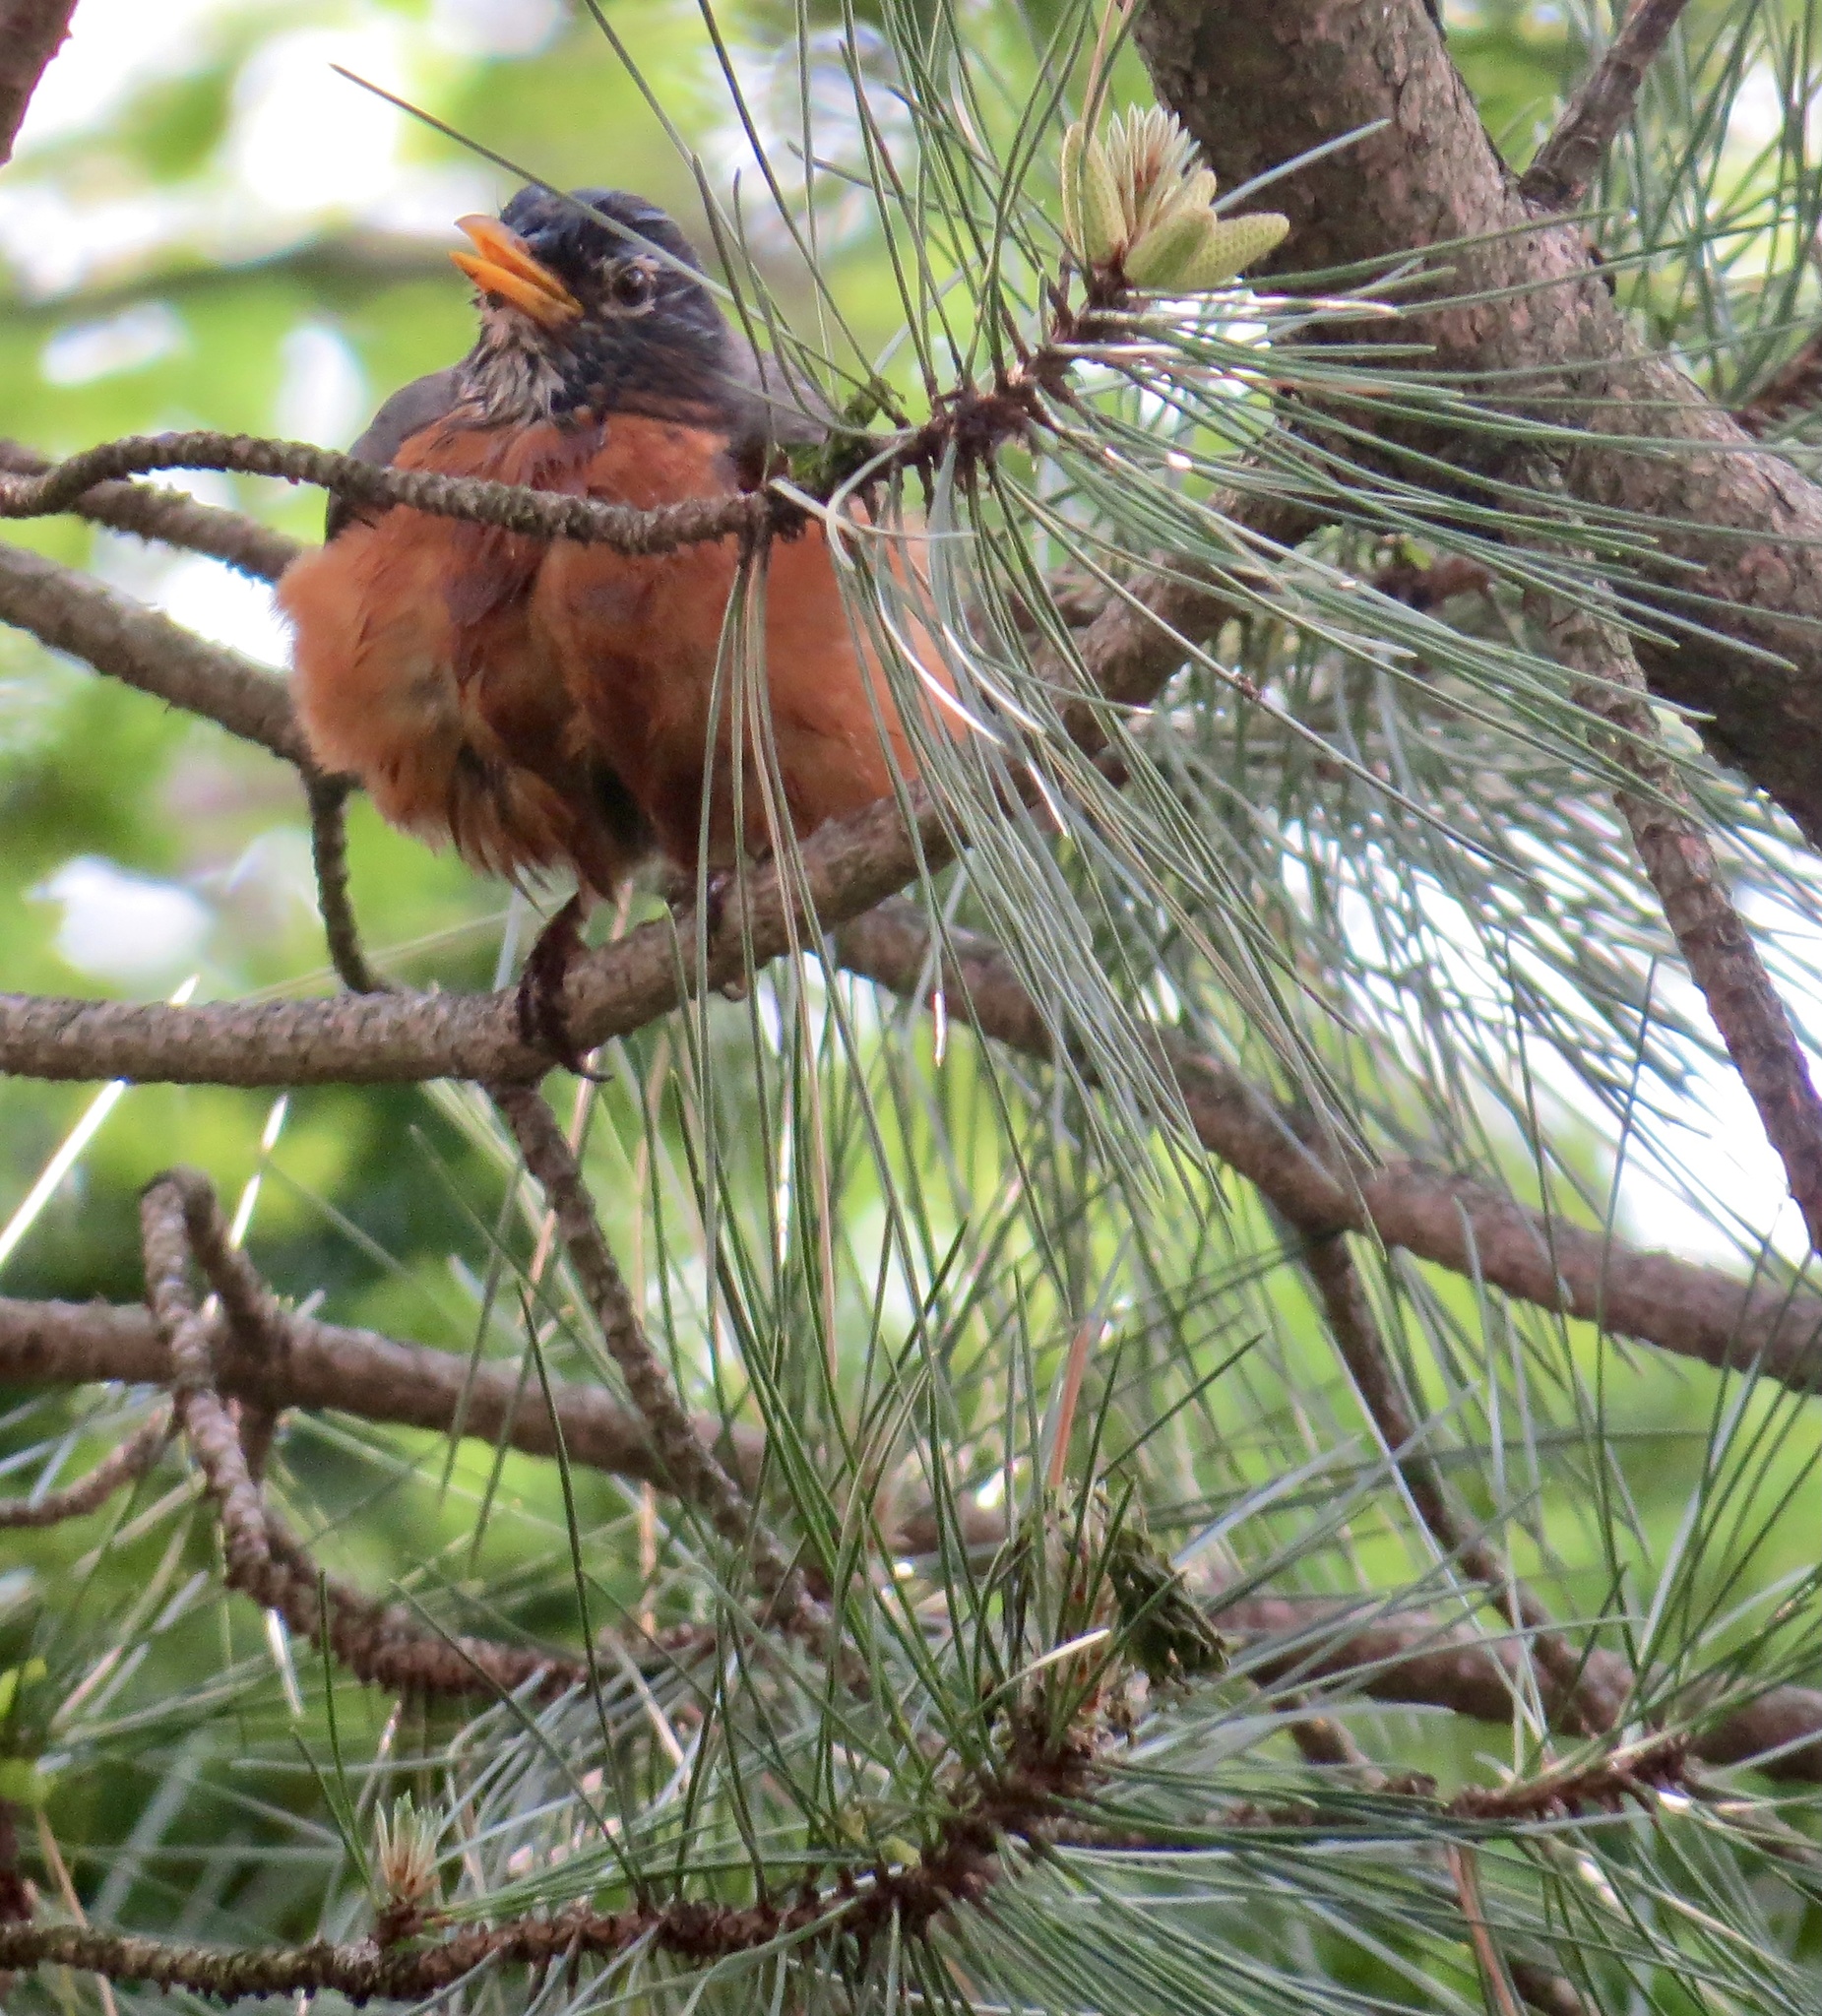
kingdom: Animalia
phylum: Chordata
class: Aves
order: Passeriformes
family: Turdidae
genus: Turdus
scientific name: Turdus migratorius
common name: American robin
